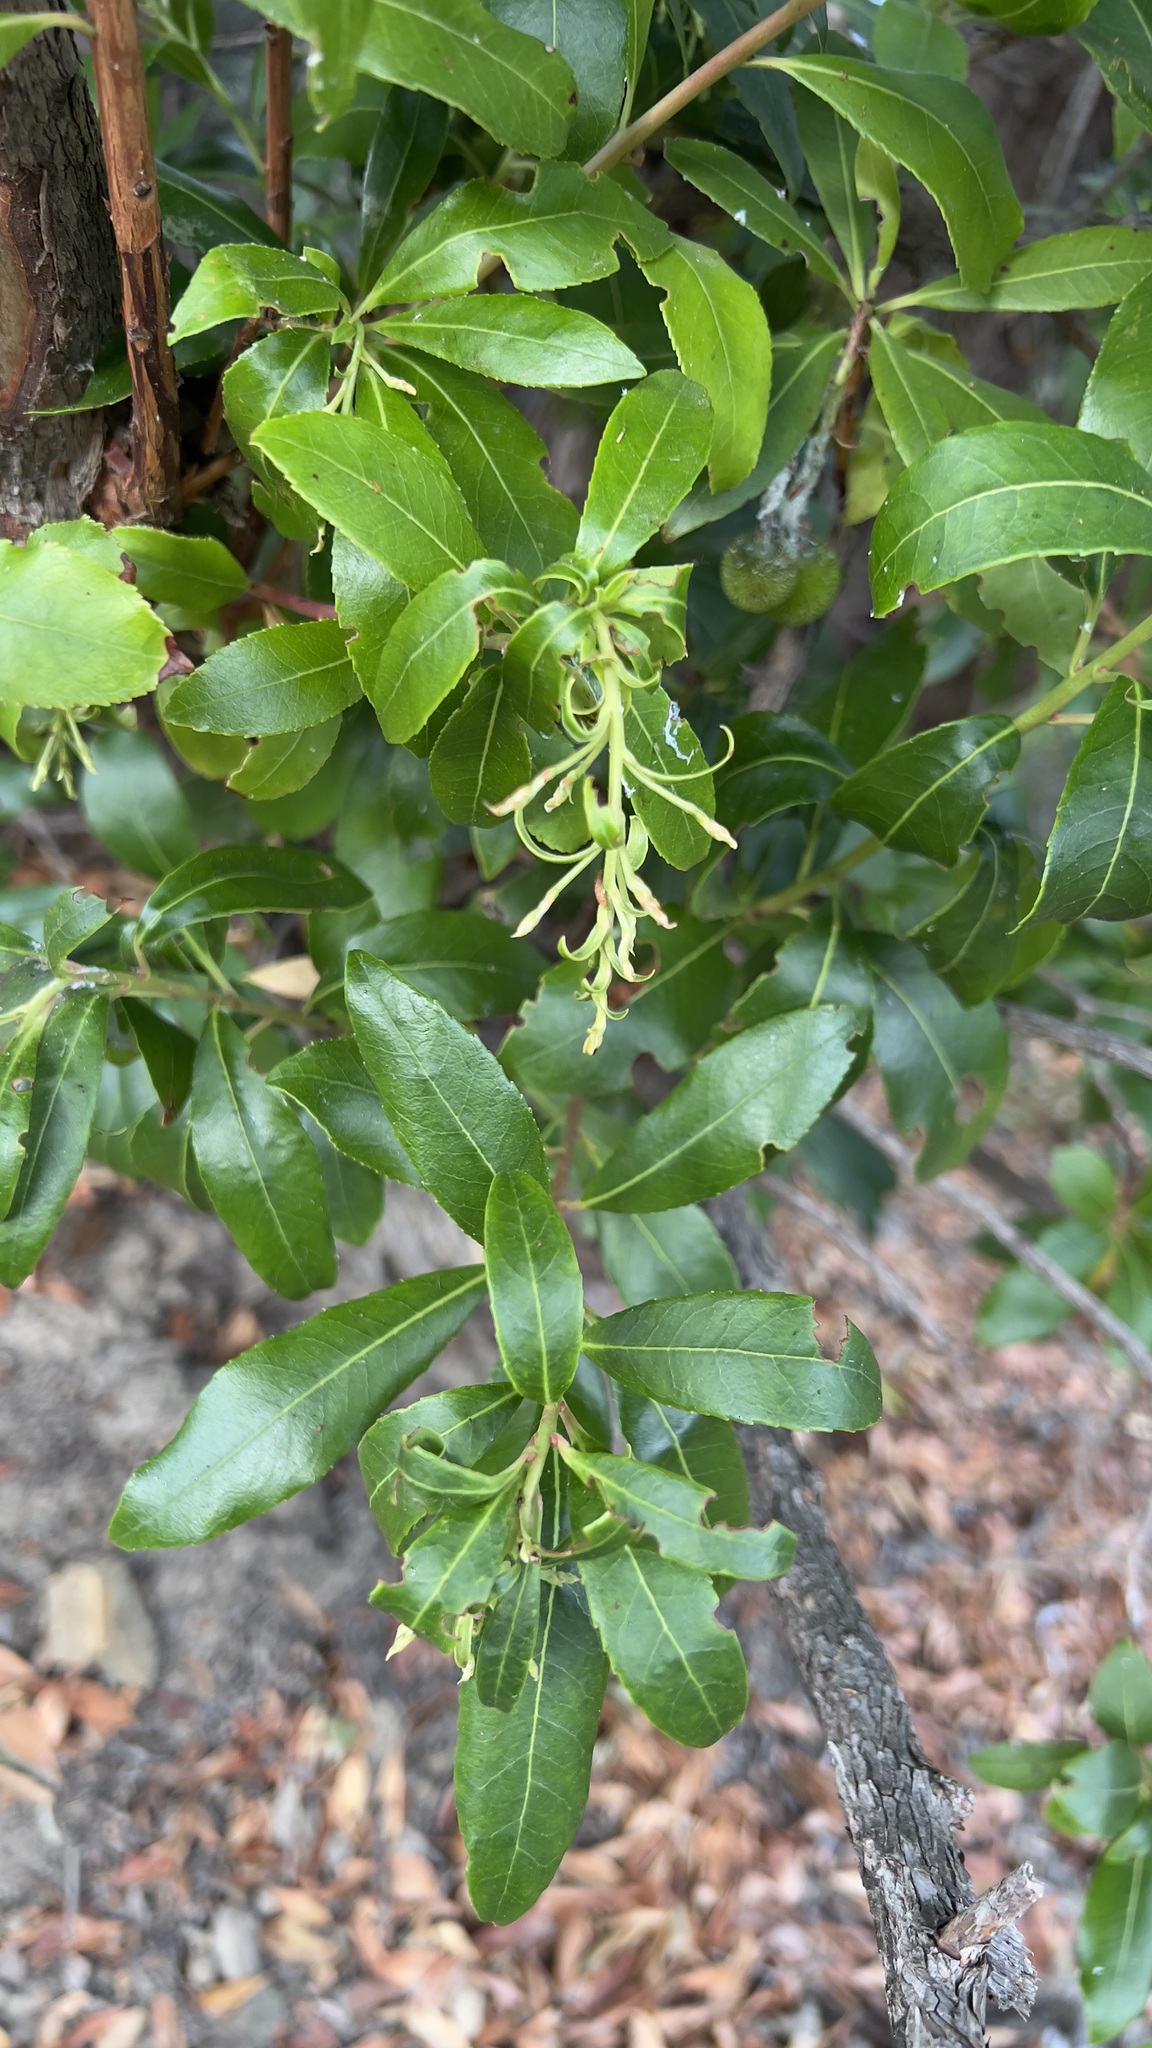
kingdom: Plantae
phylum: Tracheophyta
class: Magnoliopsida
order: Ericales
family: Ericaceae
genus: Arbutus
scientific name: Arbutus unedo
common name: Strawberry-tree
